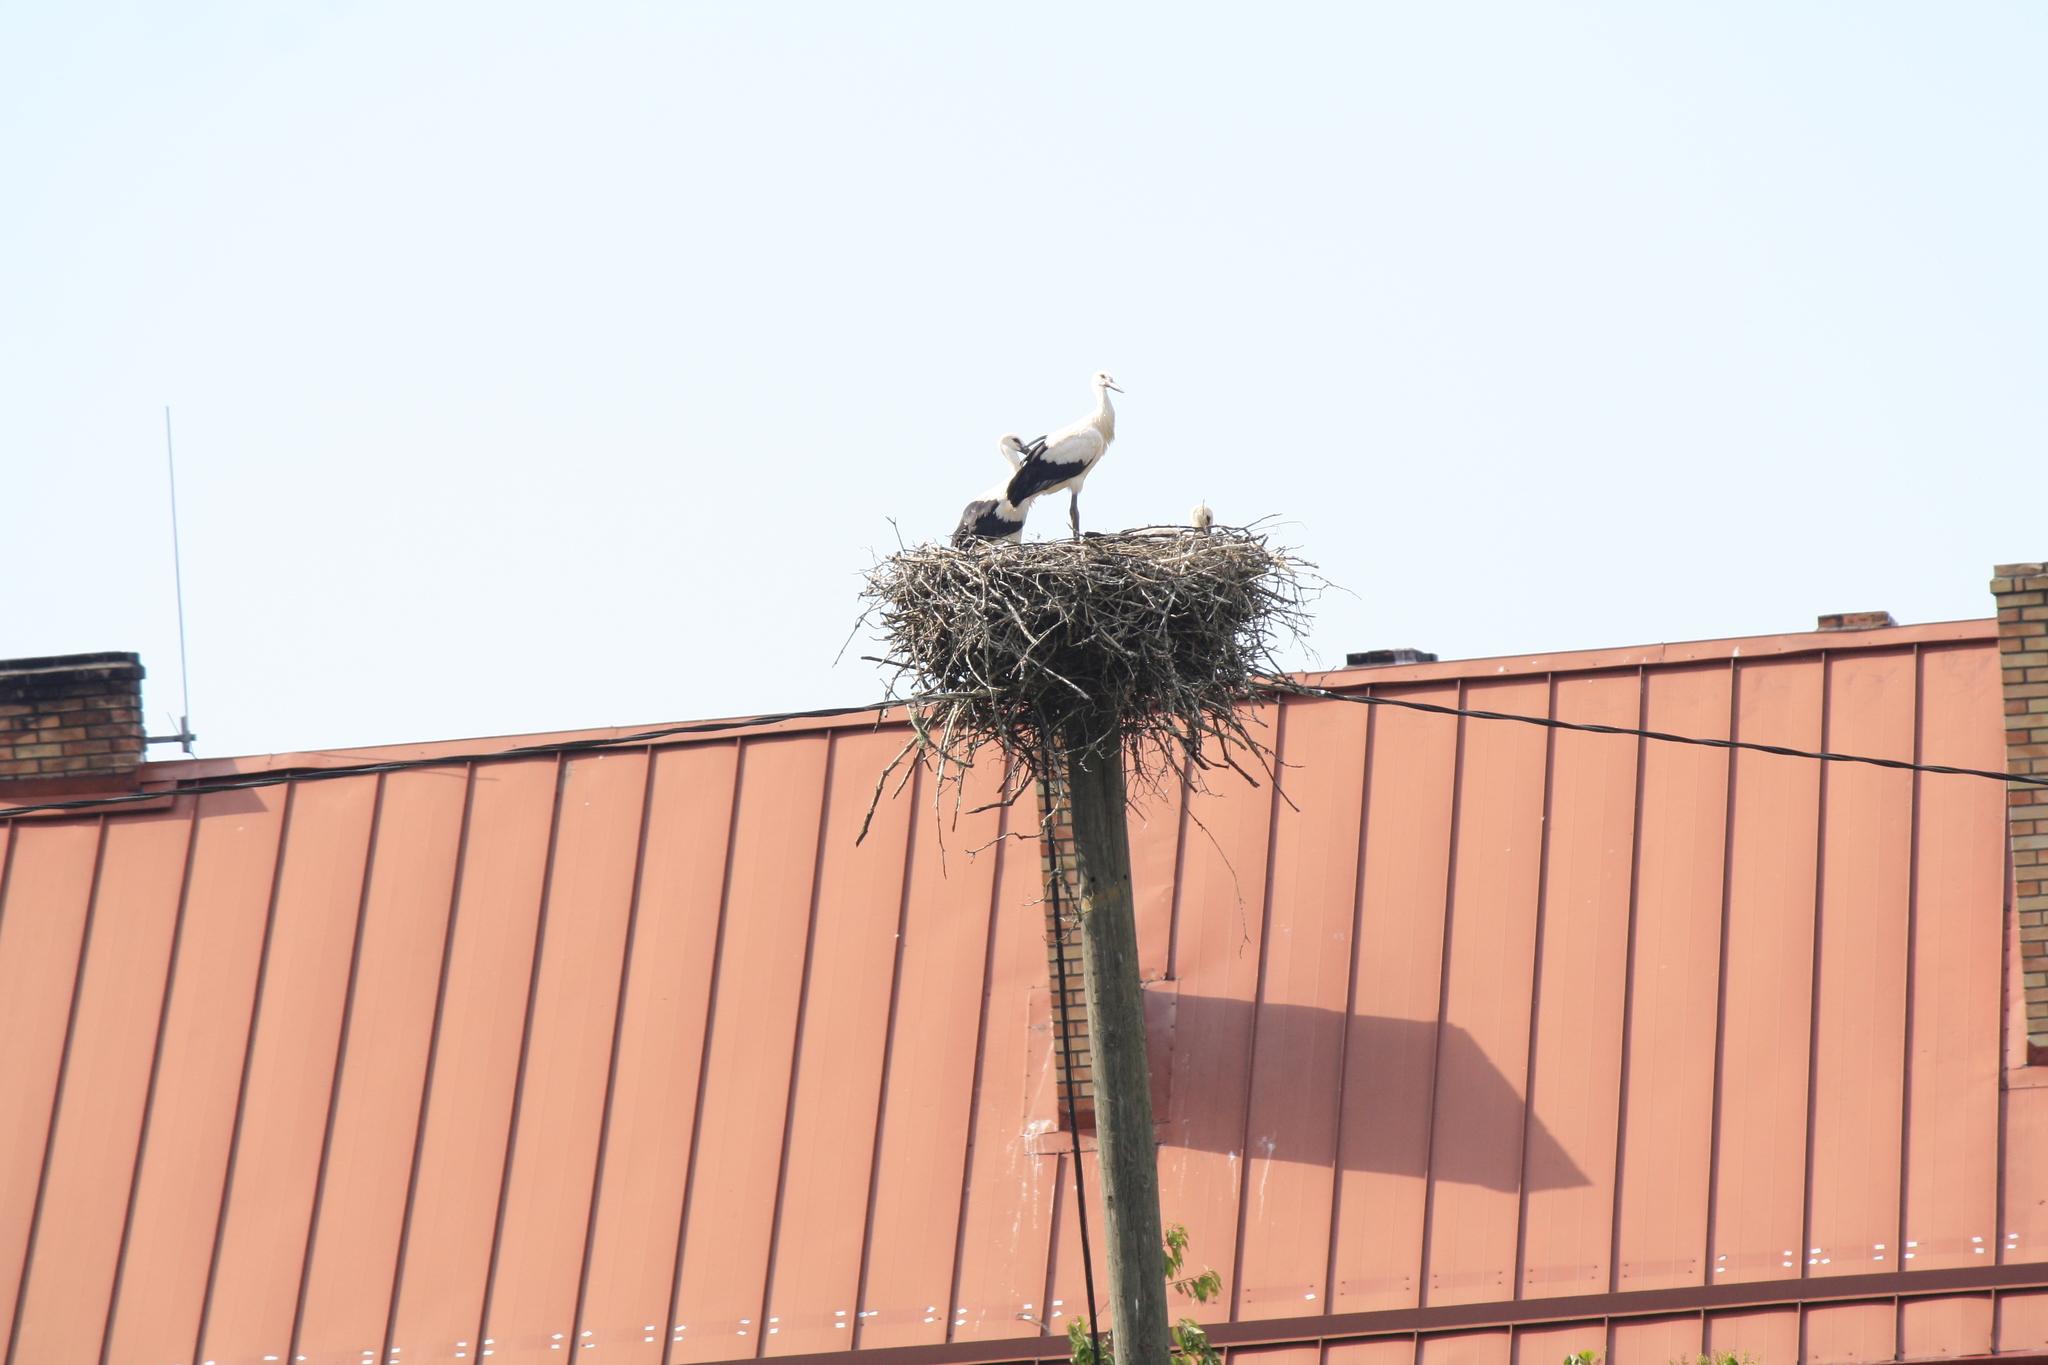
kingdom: Animalia
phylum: Chordata
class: Aves
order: Ciconiiformes
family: Ciconiidae
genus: Ciconia
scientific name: Ciconia ciconia
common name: White stork
